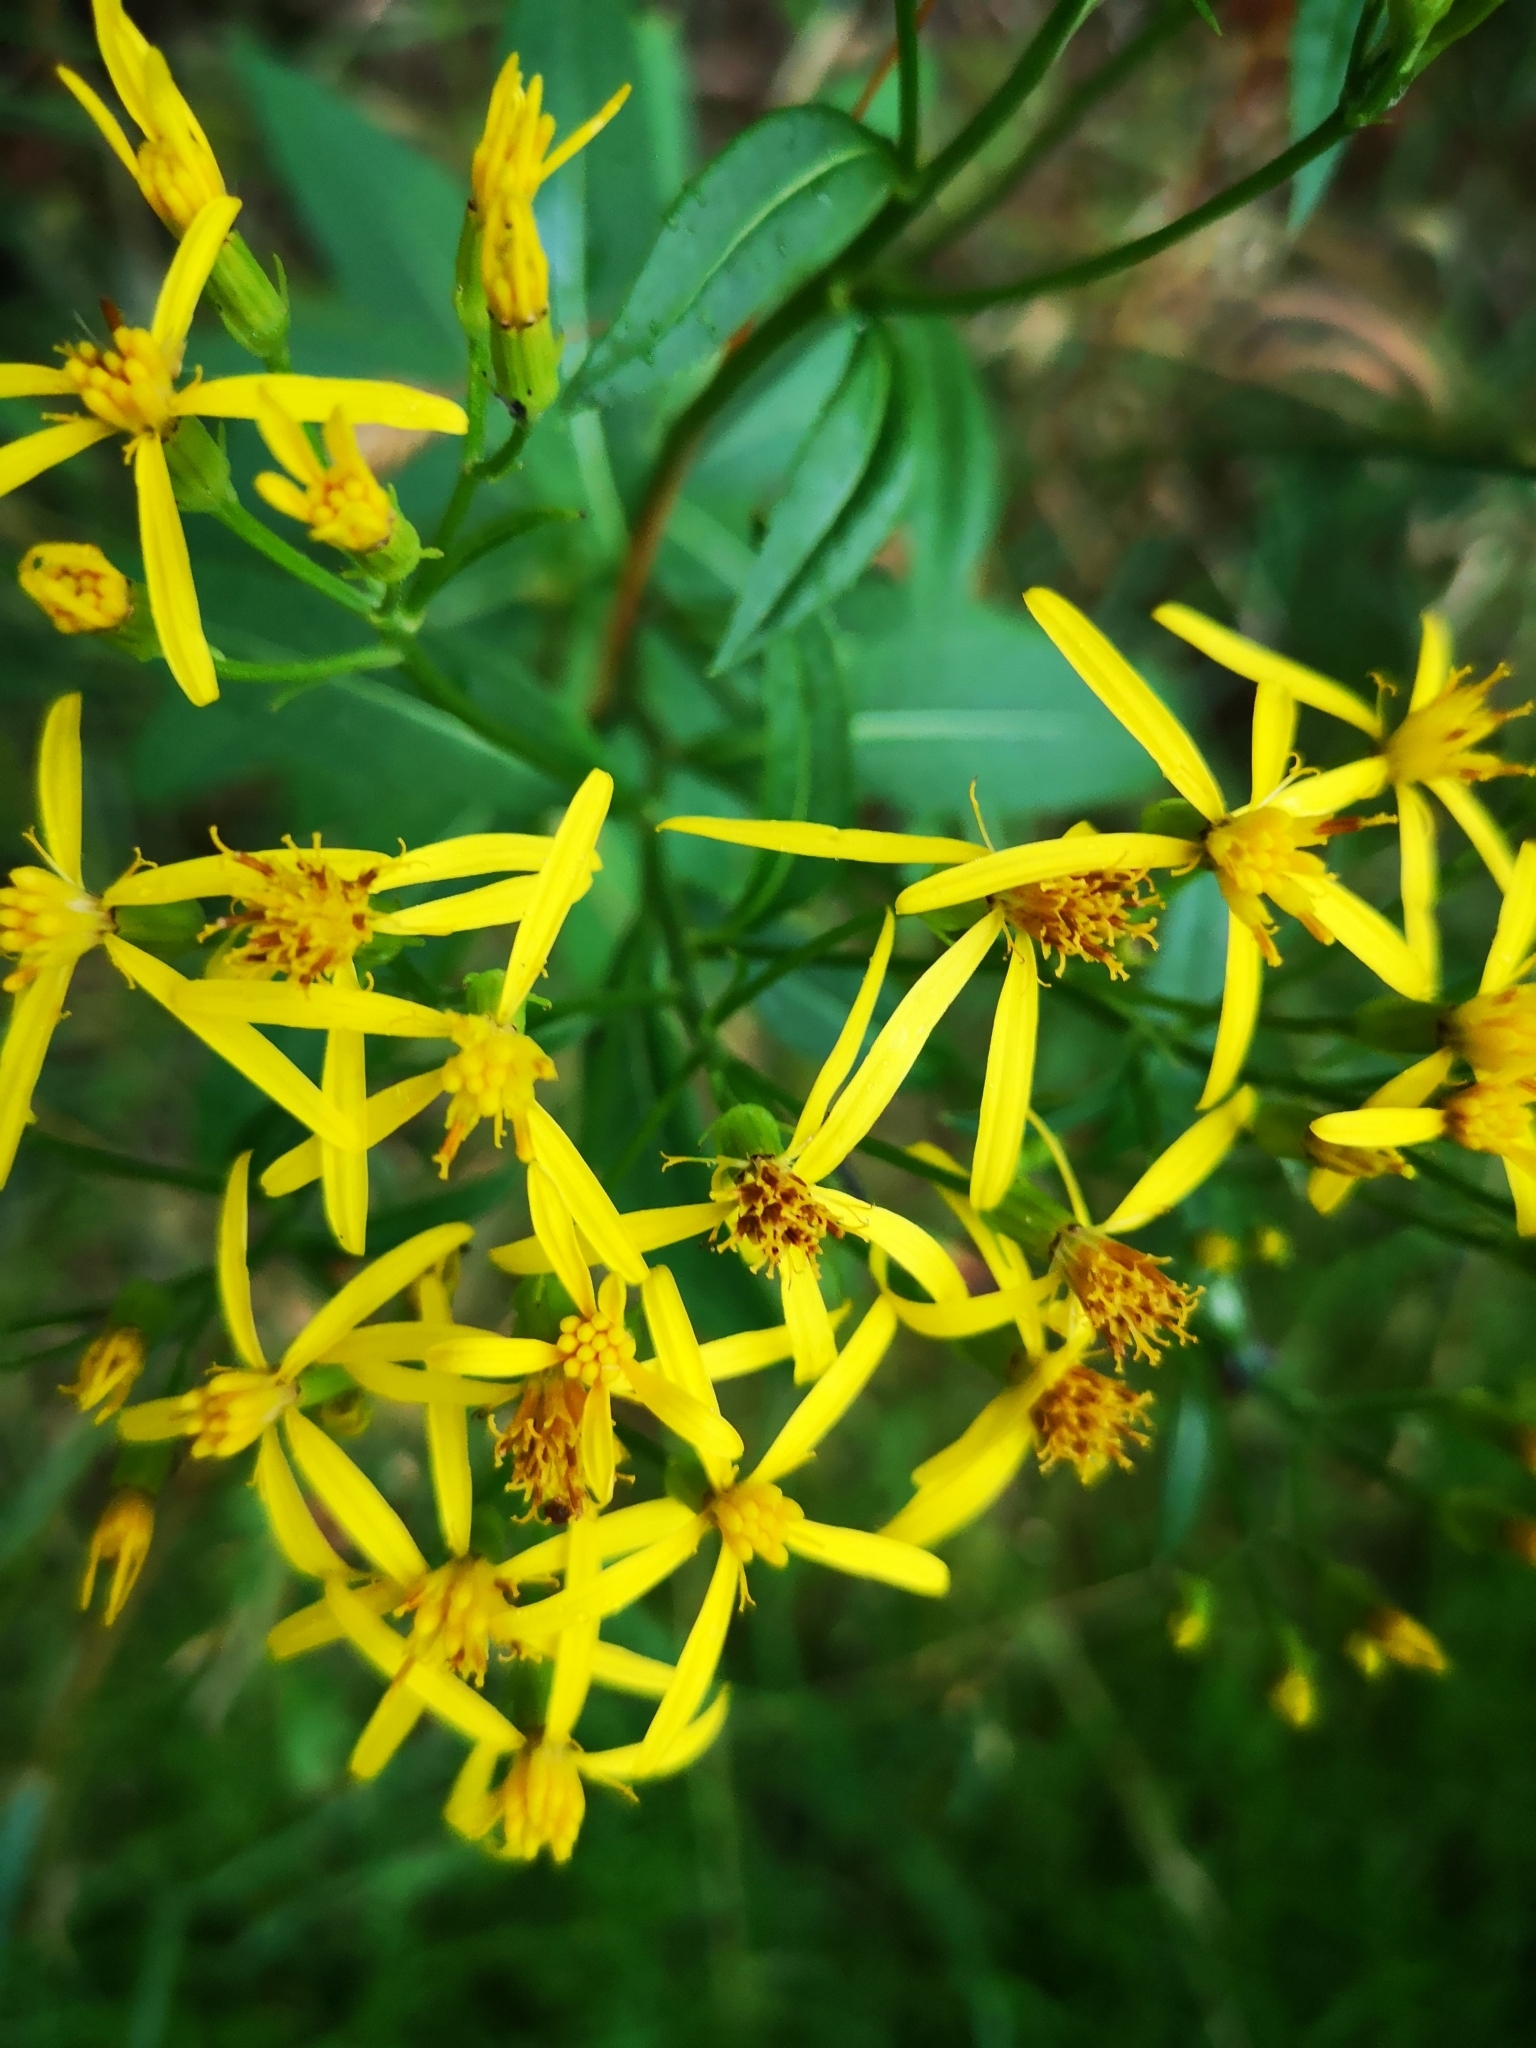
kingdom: Plantae
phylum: Tracheophyta
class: Magnoliopsida
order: Asterales
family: Asteraceae
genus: Senecio
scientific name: Senecio ovatus
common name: Wood ragwort
